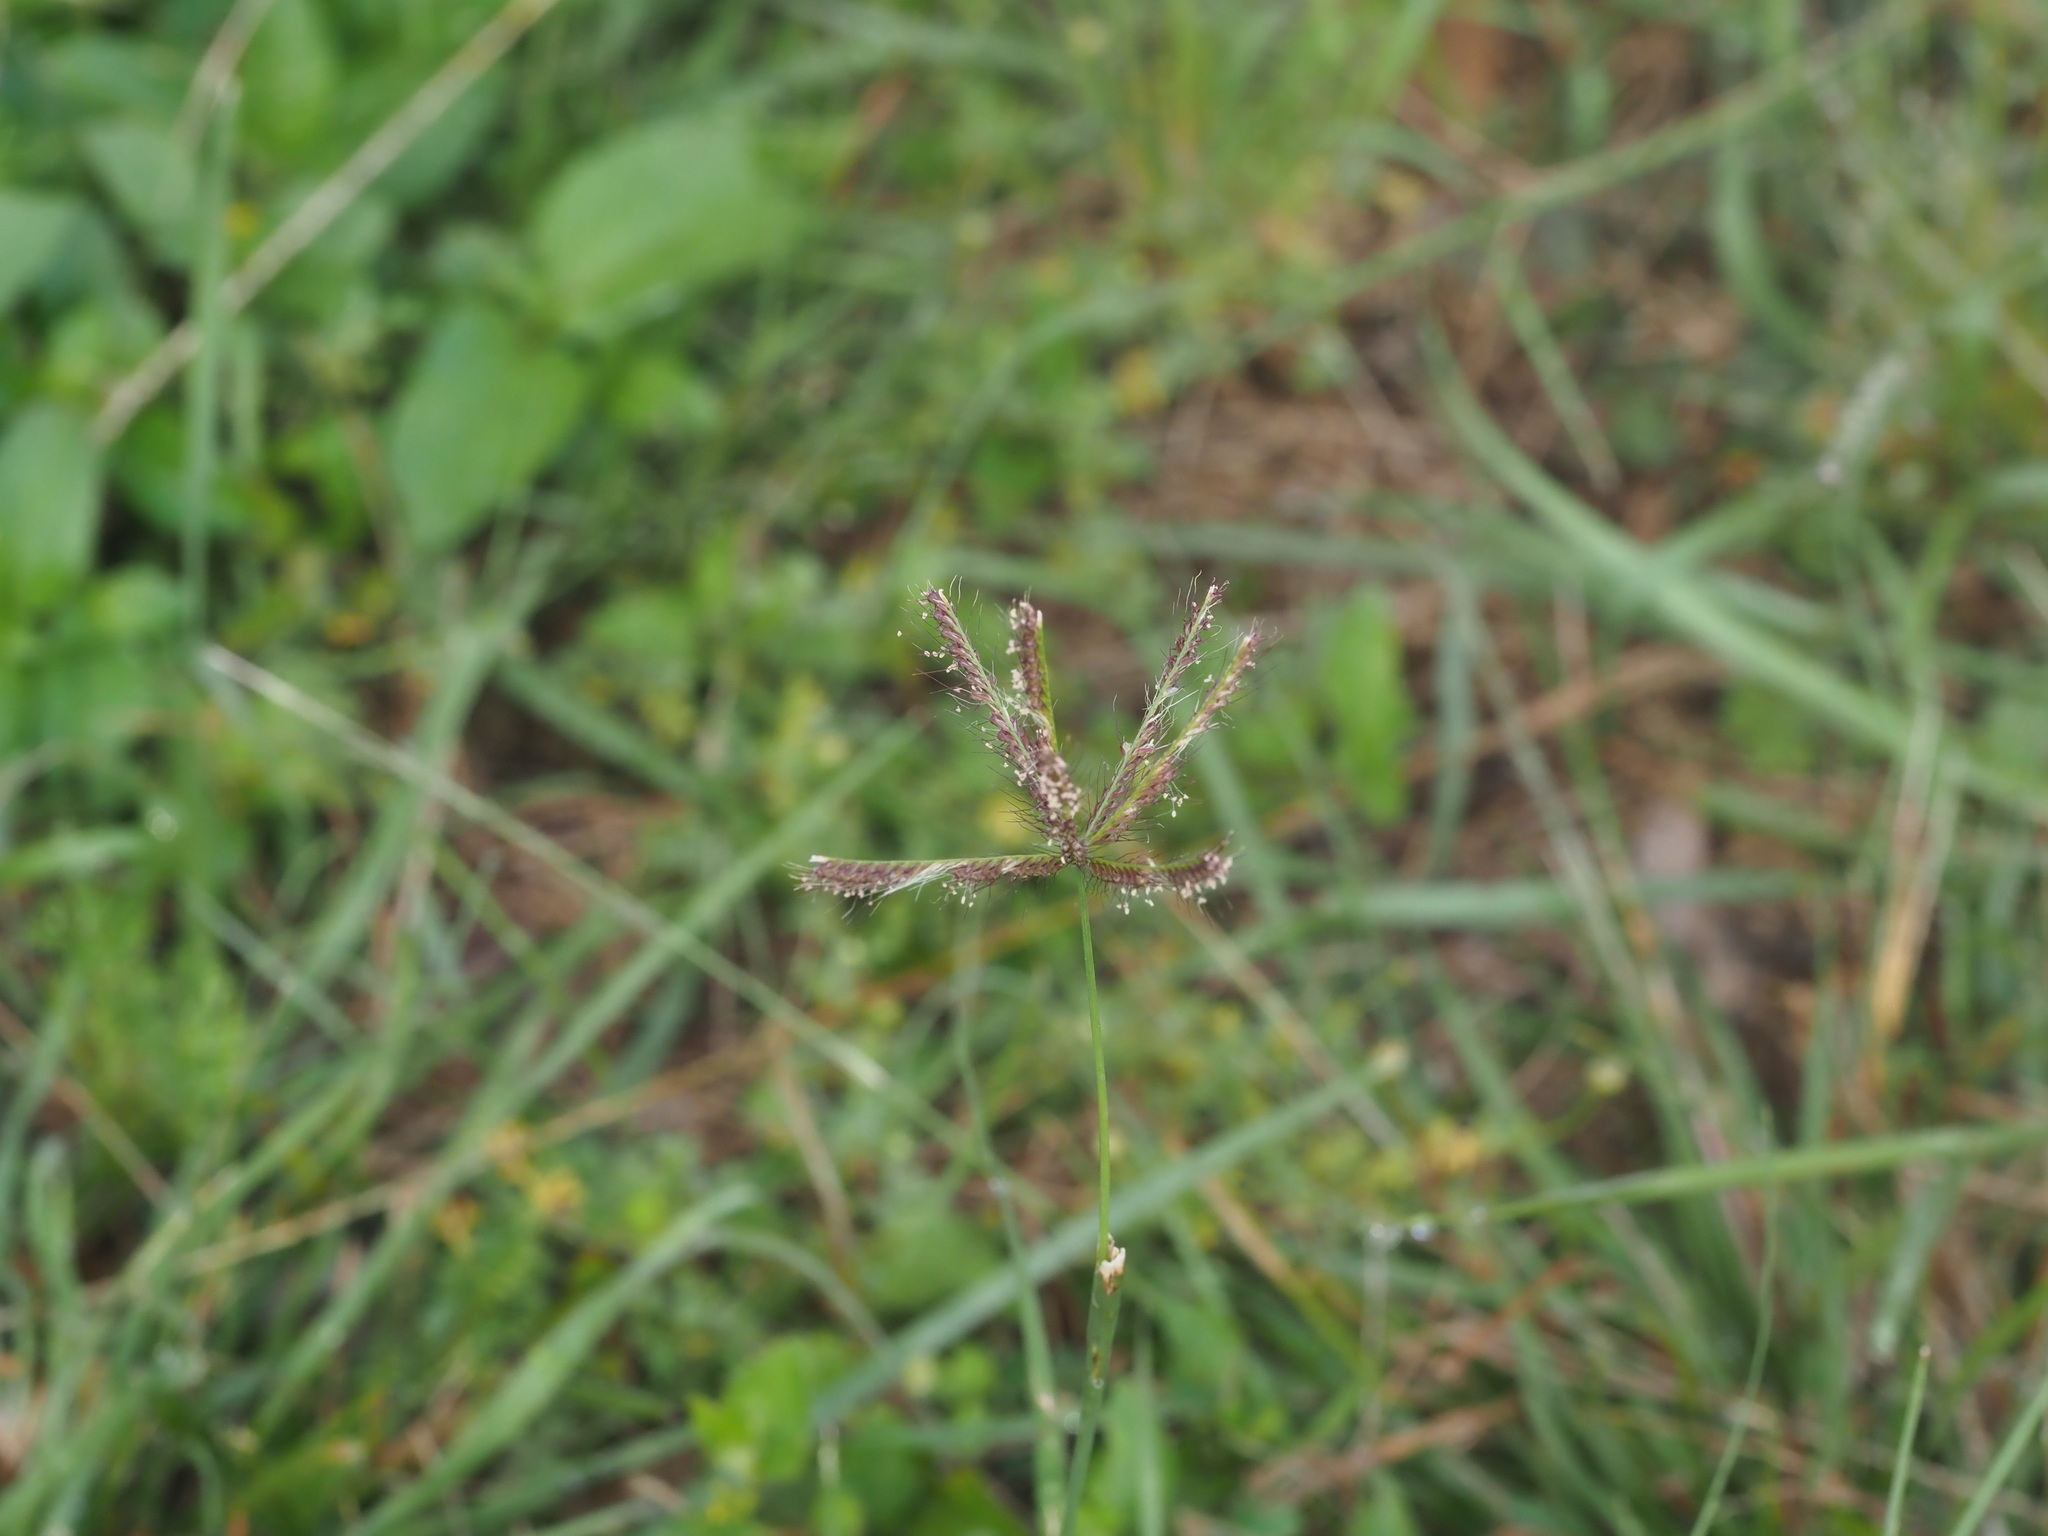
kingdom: Plantae
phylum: Tracheophyta
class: Liliopsida
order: Poales
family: Poaceae
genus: Chloris
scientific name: Chloris barbata
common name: Swollen fingergrass
